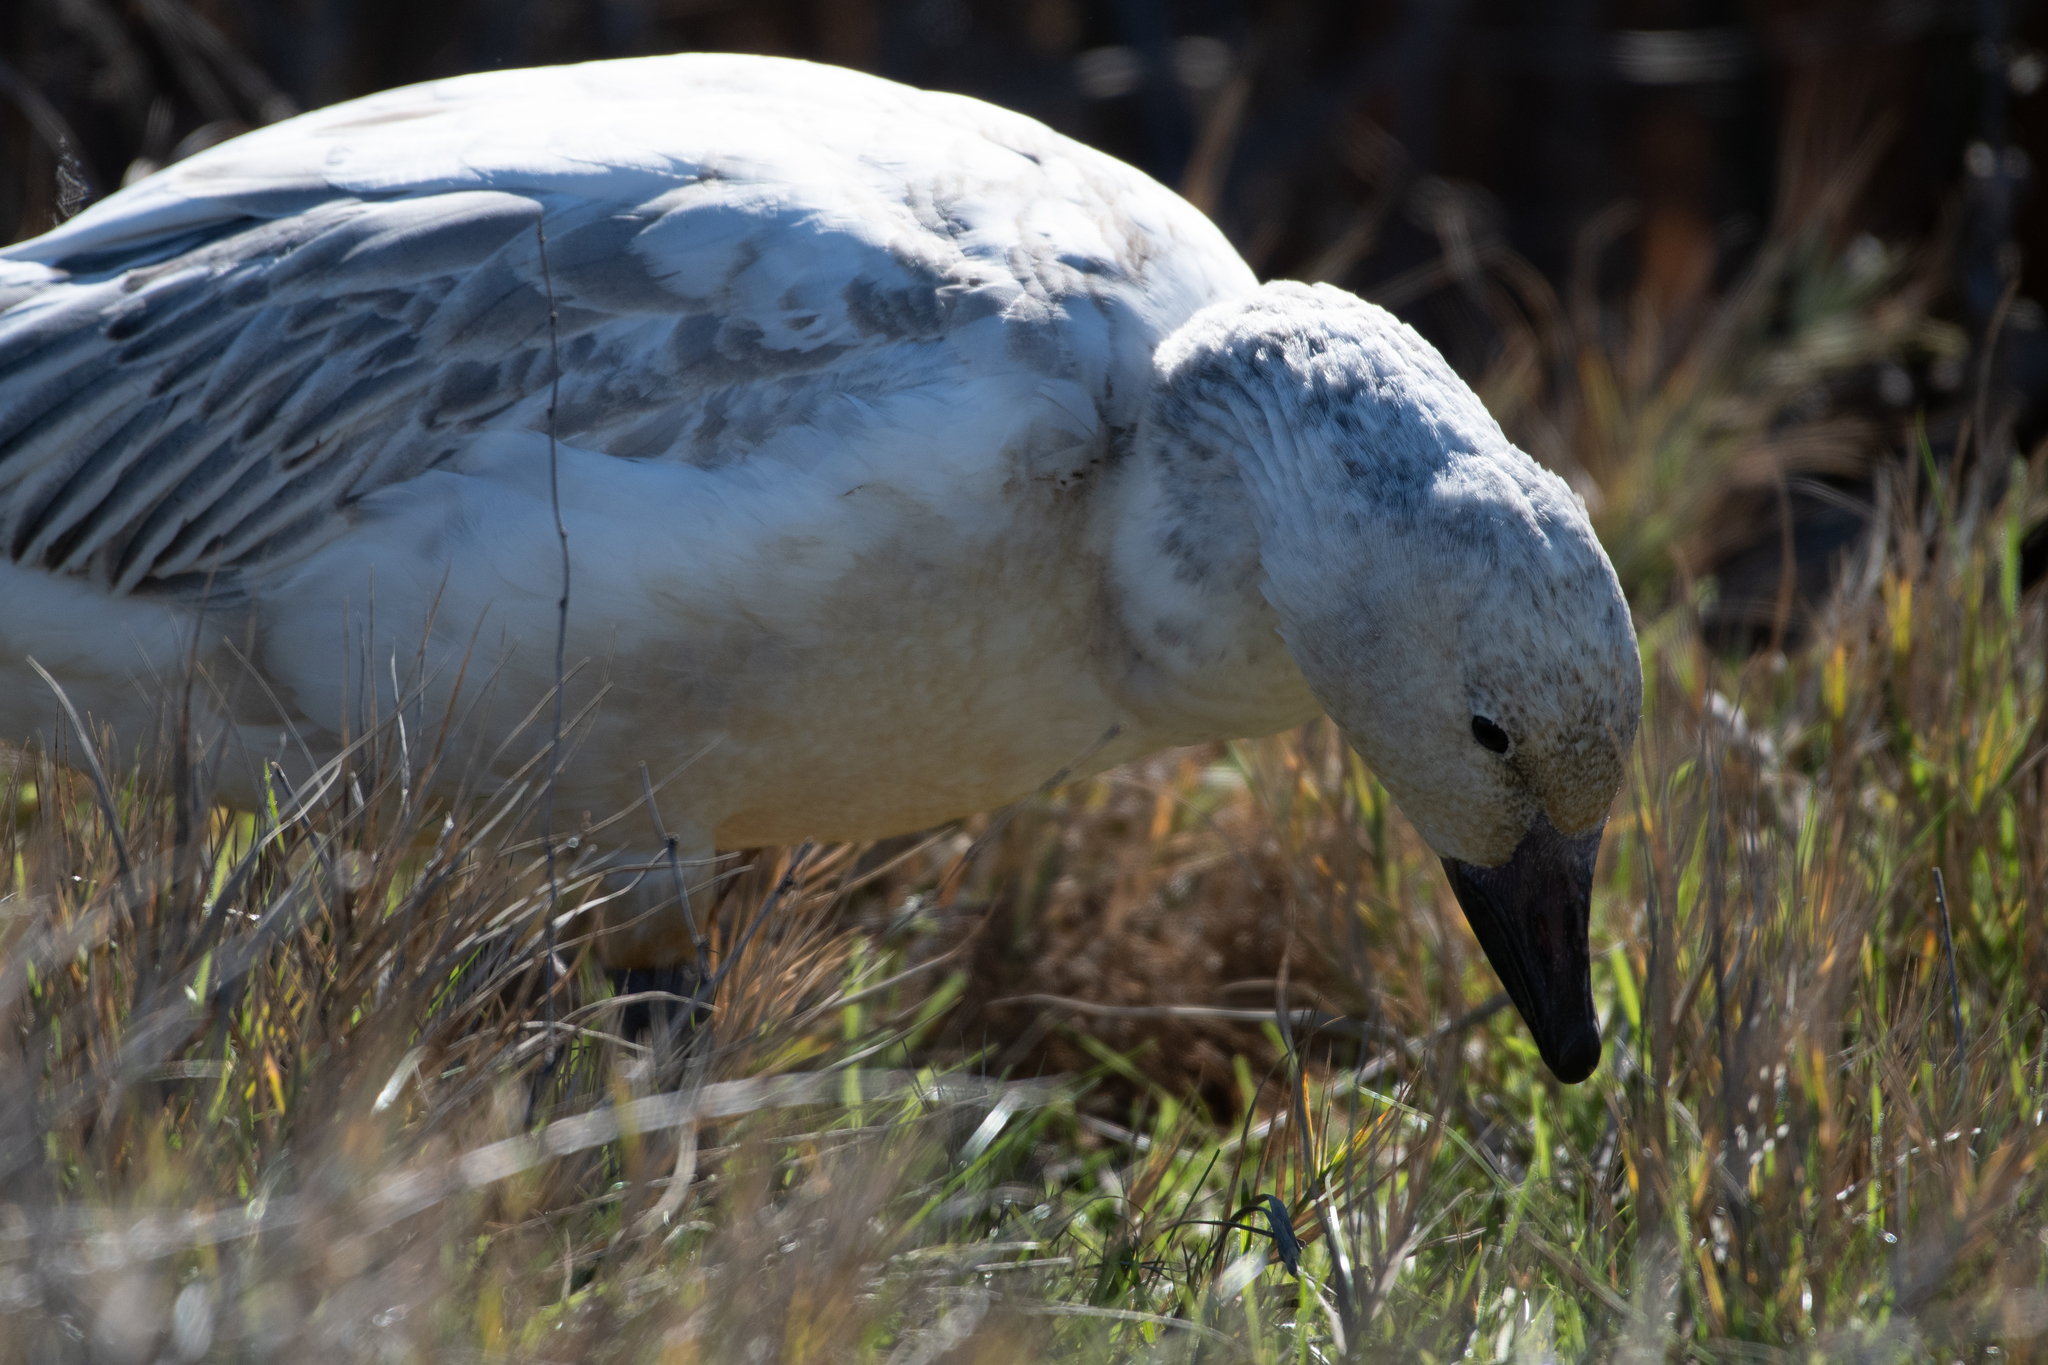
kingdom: Animalia
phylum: Chordata
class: Aves
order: Anseriformes
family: Anatidae
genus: Anser
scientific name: Anser caerulescens
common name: Snow goose
